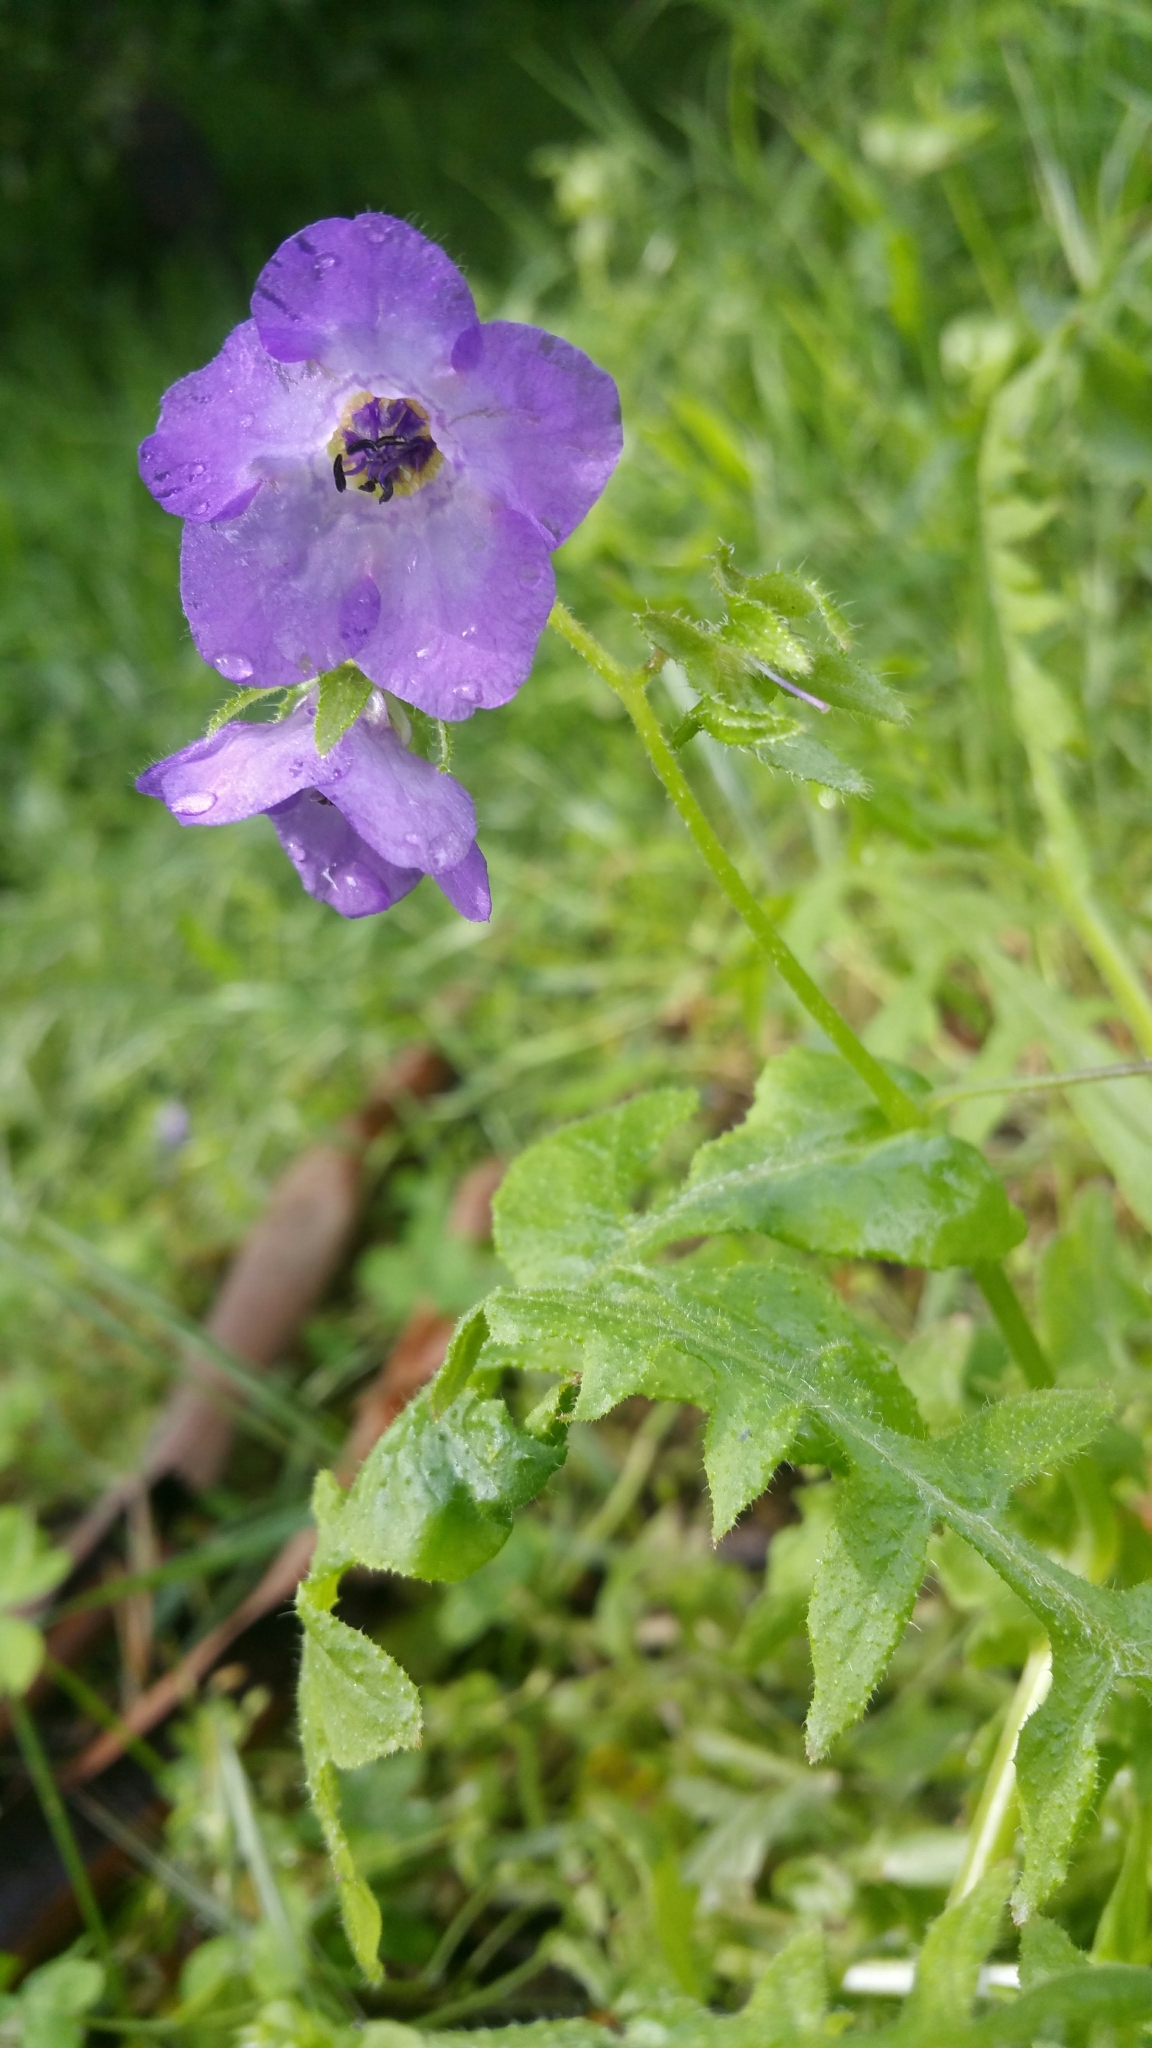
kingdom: Plantae
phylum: Tracheophyta
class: Magnoliopsida
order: Boraginales
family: Hydrophyllaceae
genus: Pholistoma
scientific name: Pholistoma auritum
